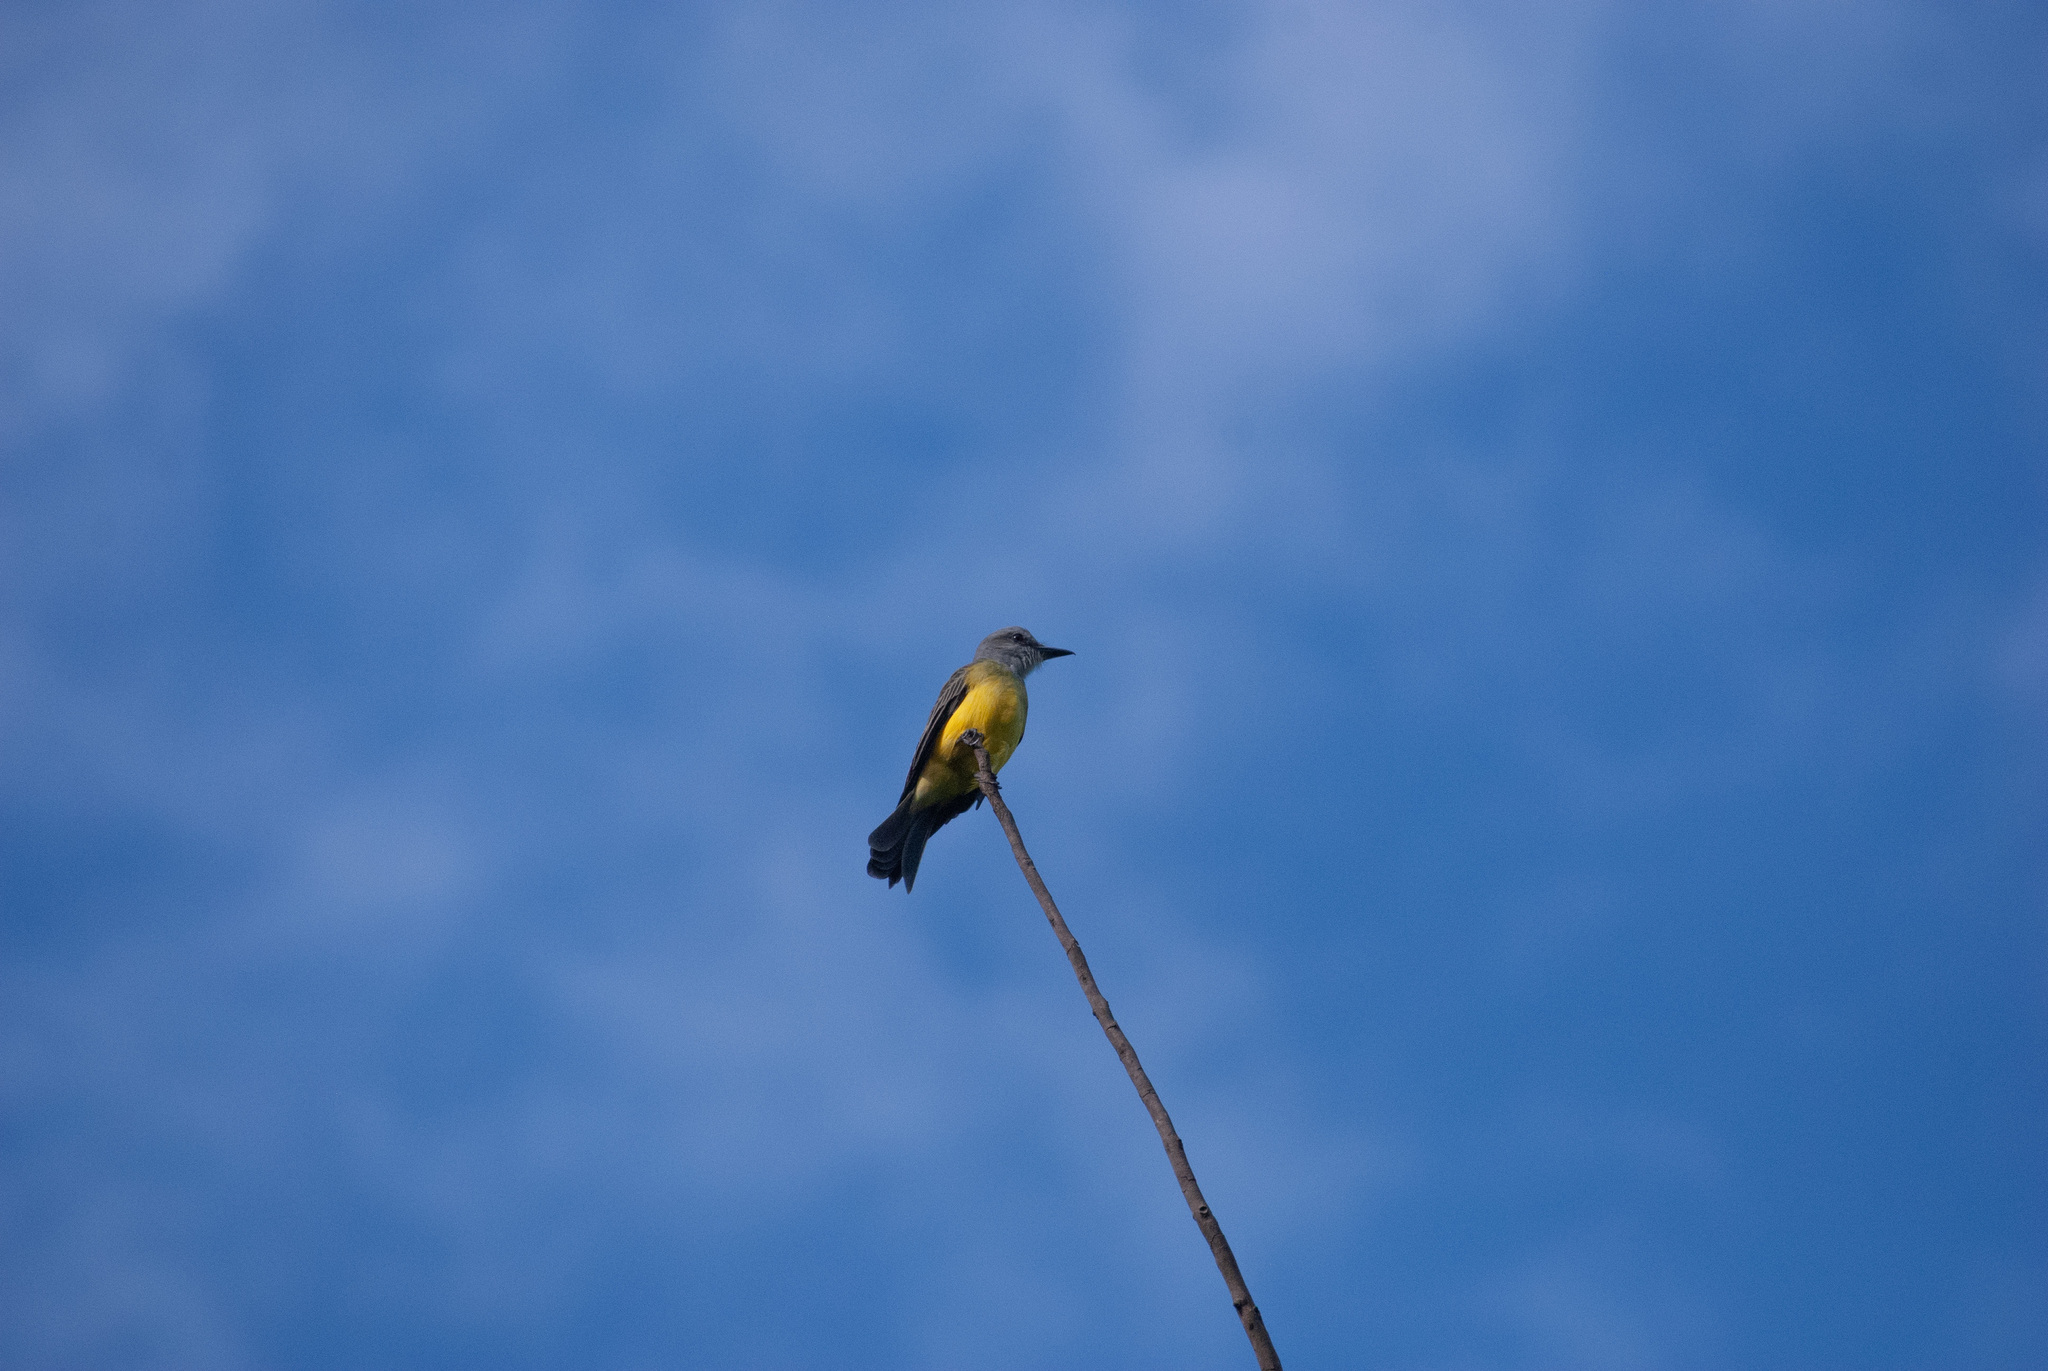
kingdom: Animalia
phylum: Chordata
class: Aves
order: Passeriformes
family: Tyrannidae
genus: Tyrannus
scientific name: Tyrannus melancholicus
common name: Tropical kingbird
